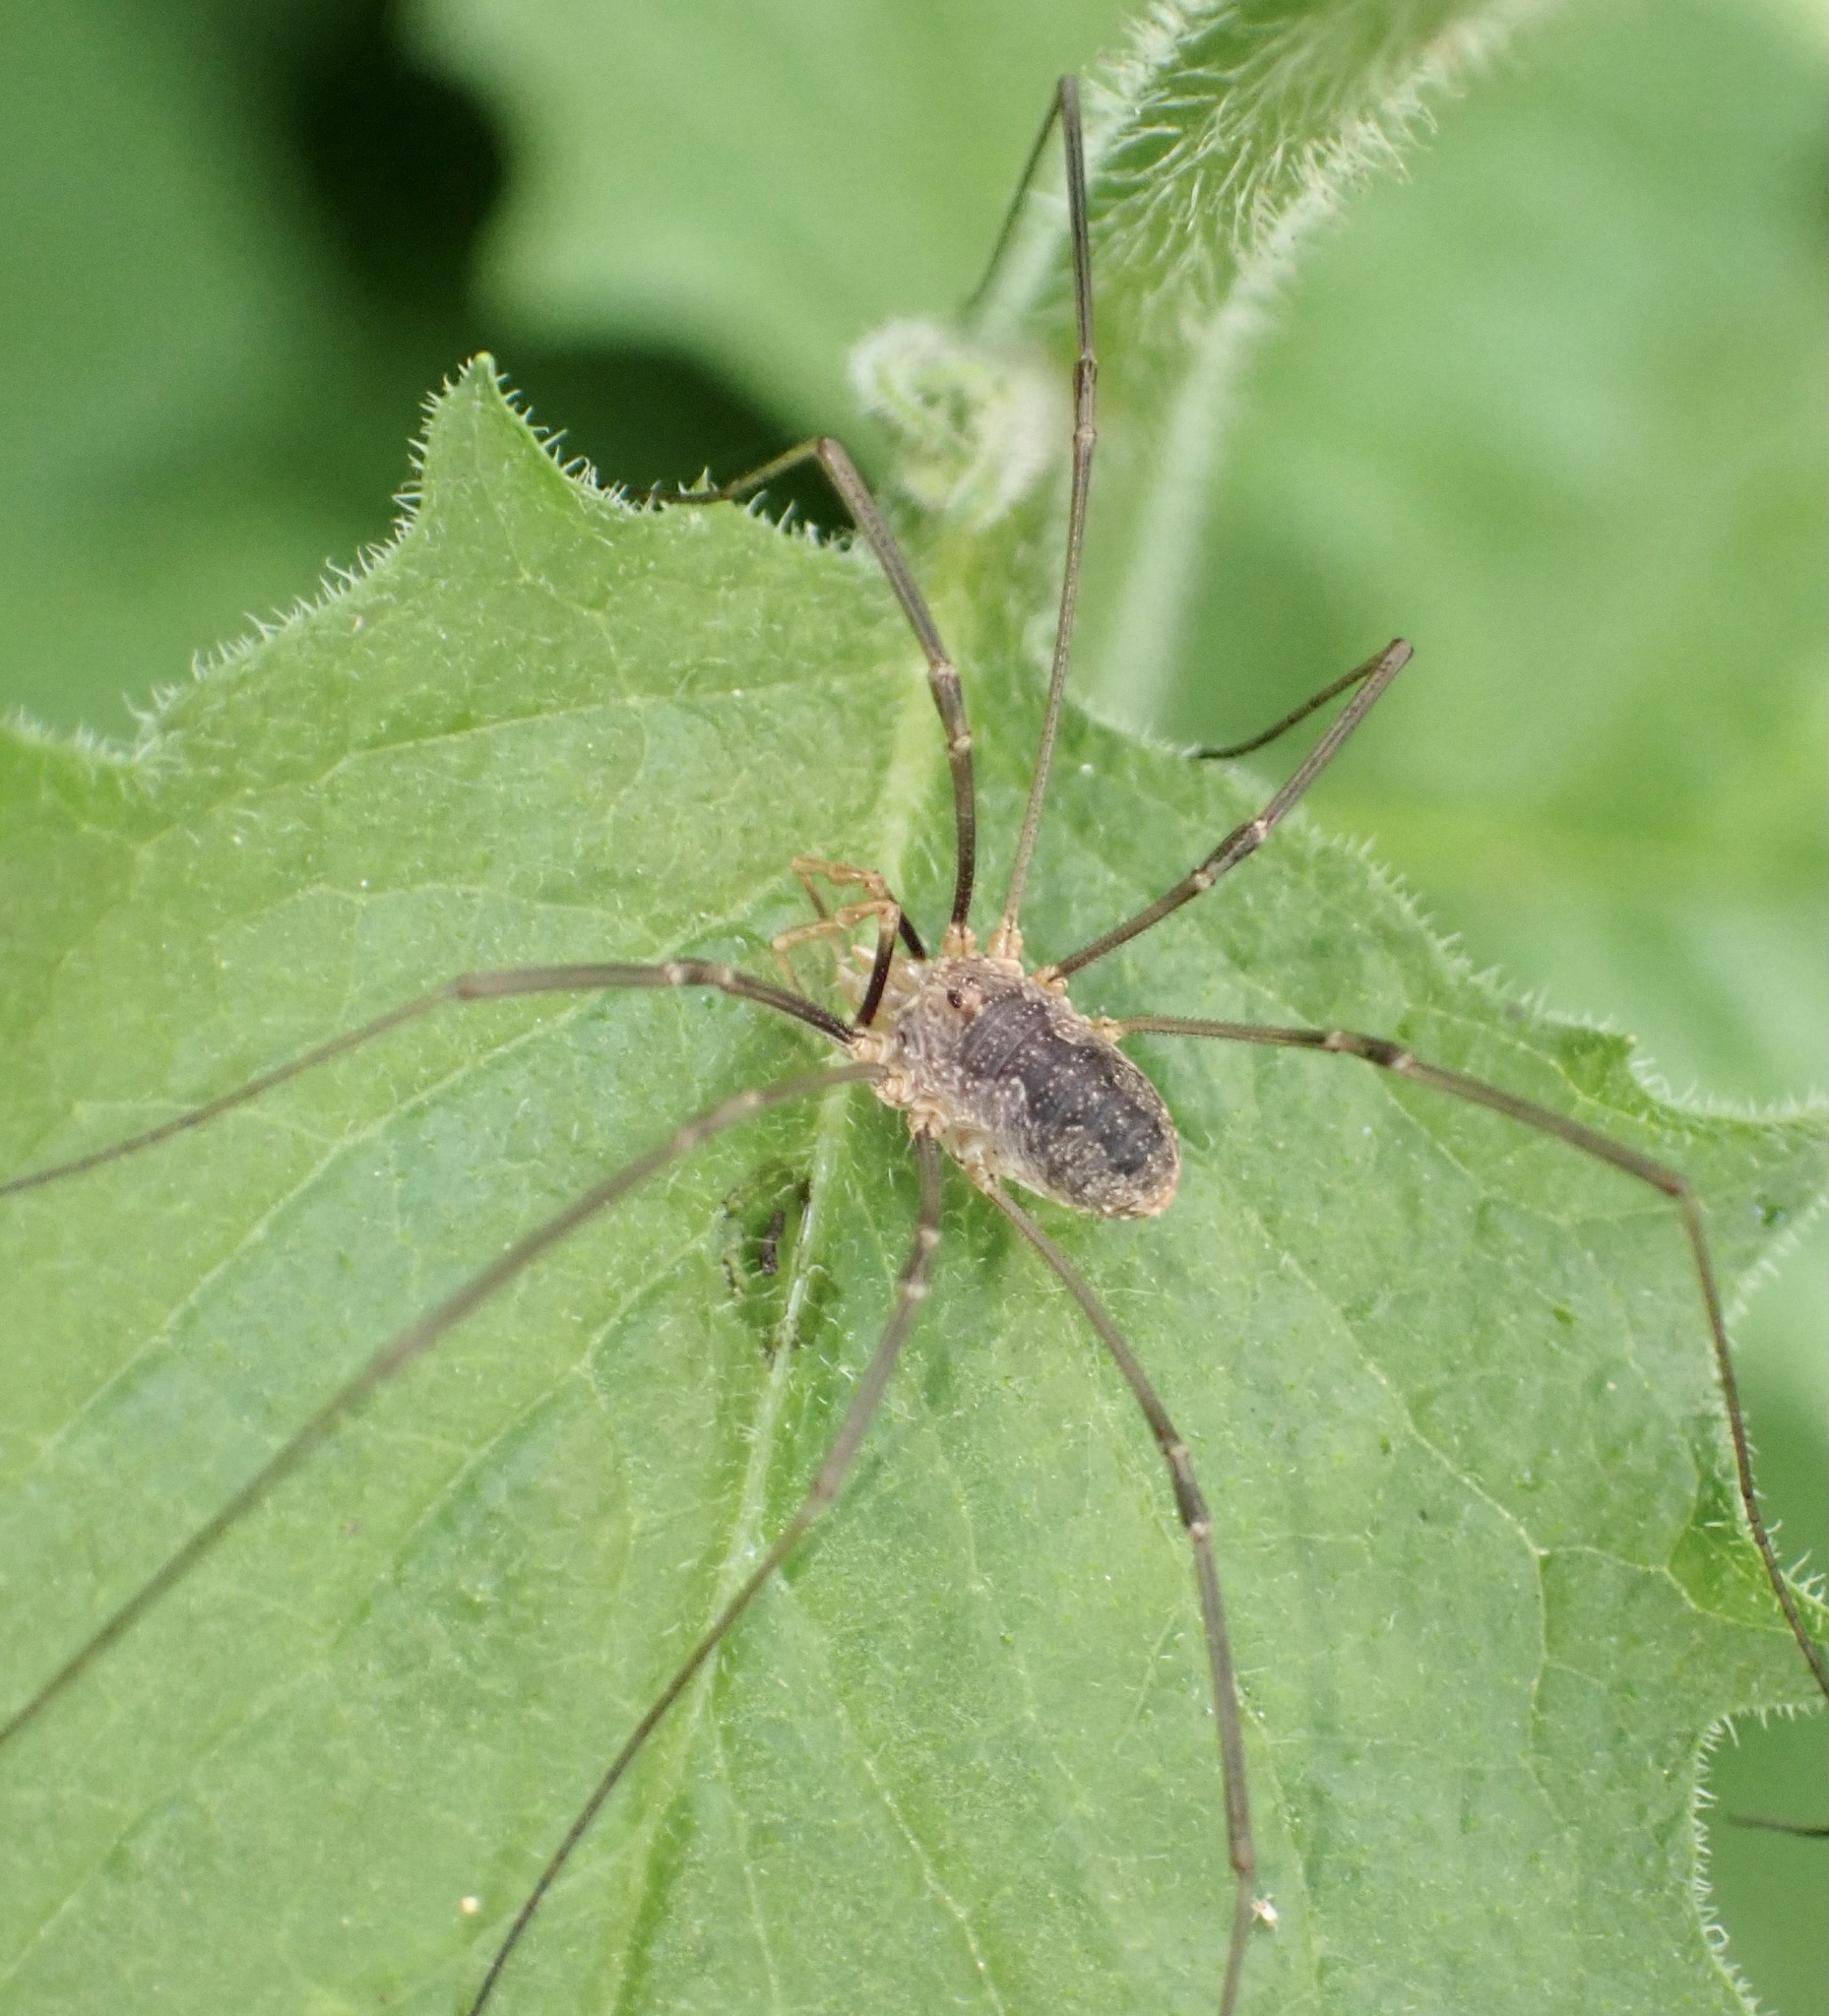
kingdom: Animalia
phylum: Arthropoda
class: Arachnida
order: Opiliones
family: Phalangiidae
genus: Phalangium
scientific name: Phalangium opilio
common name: Daddy longleg
